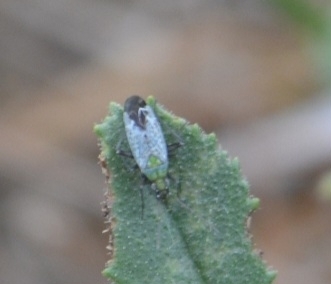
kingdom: Animalia
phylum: Arthropoda
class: Insecta
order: Hemiptera
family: Miridae
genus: Macrotylus
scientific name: Macrotylus paykullii
